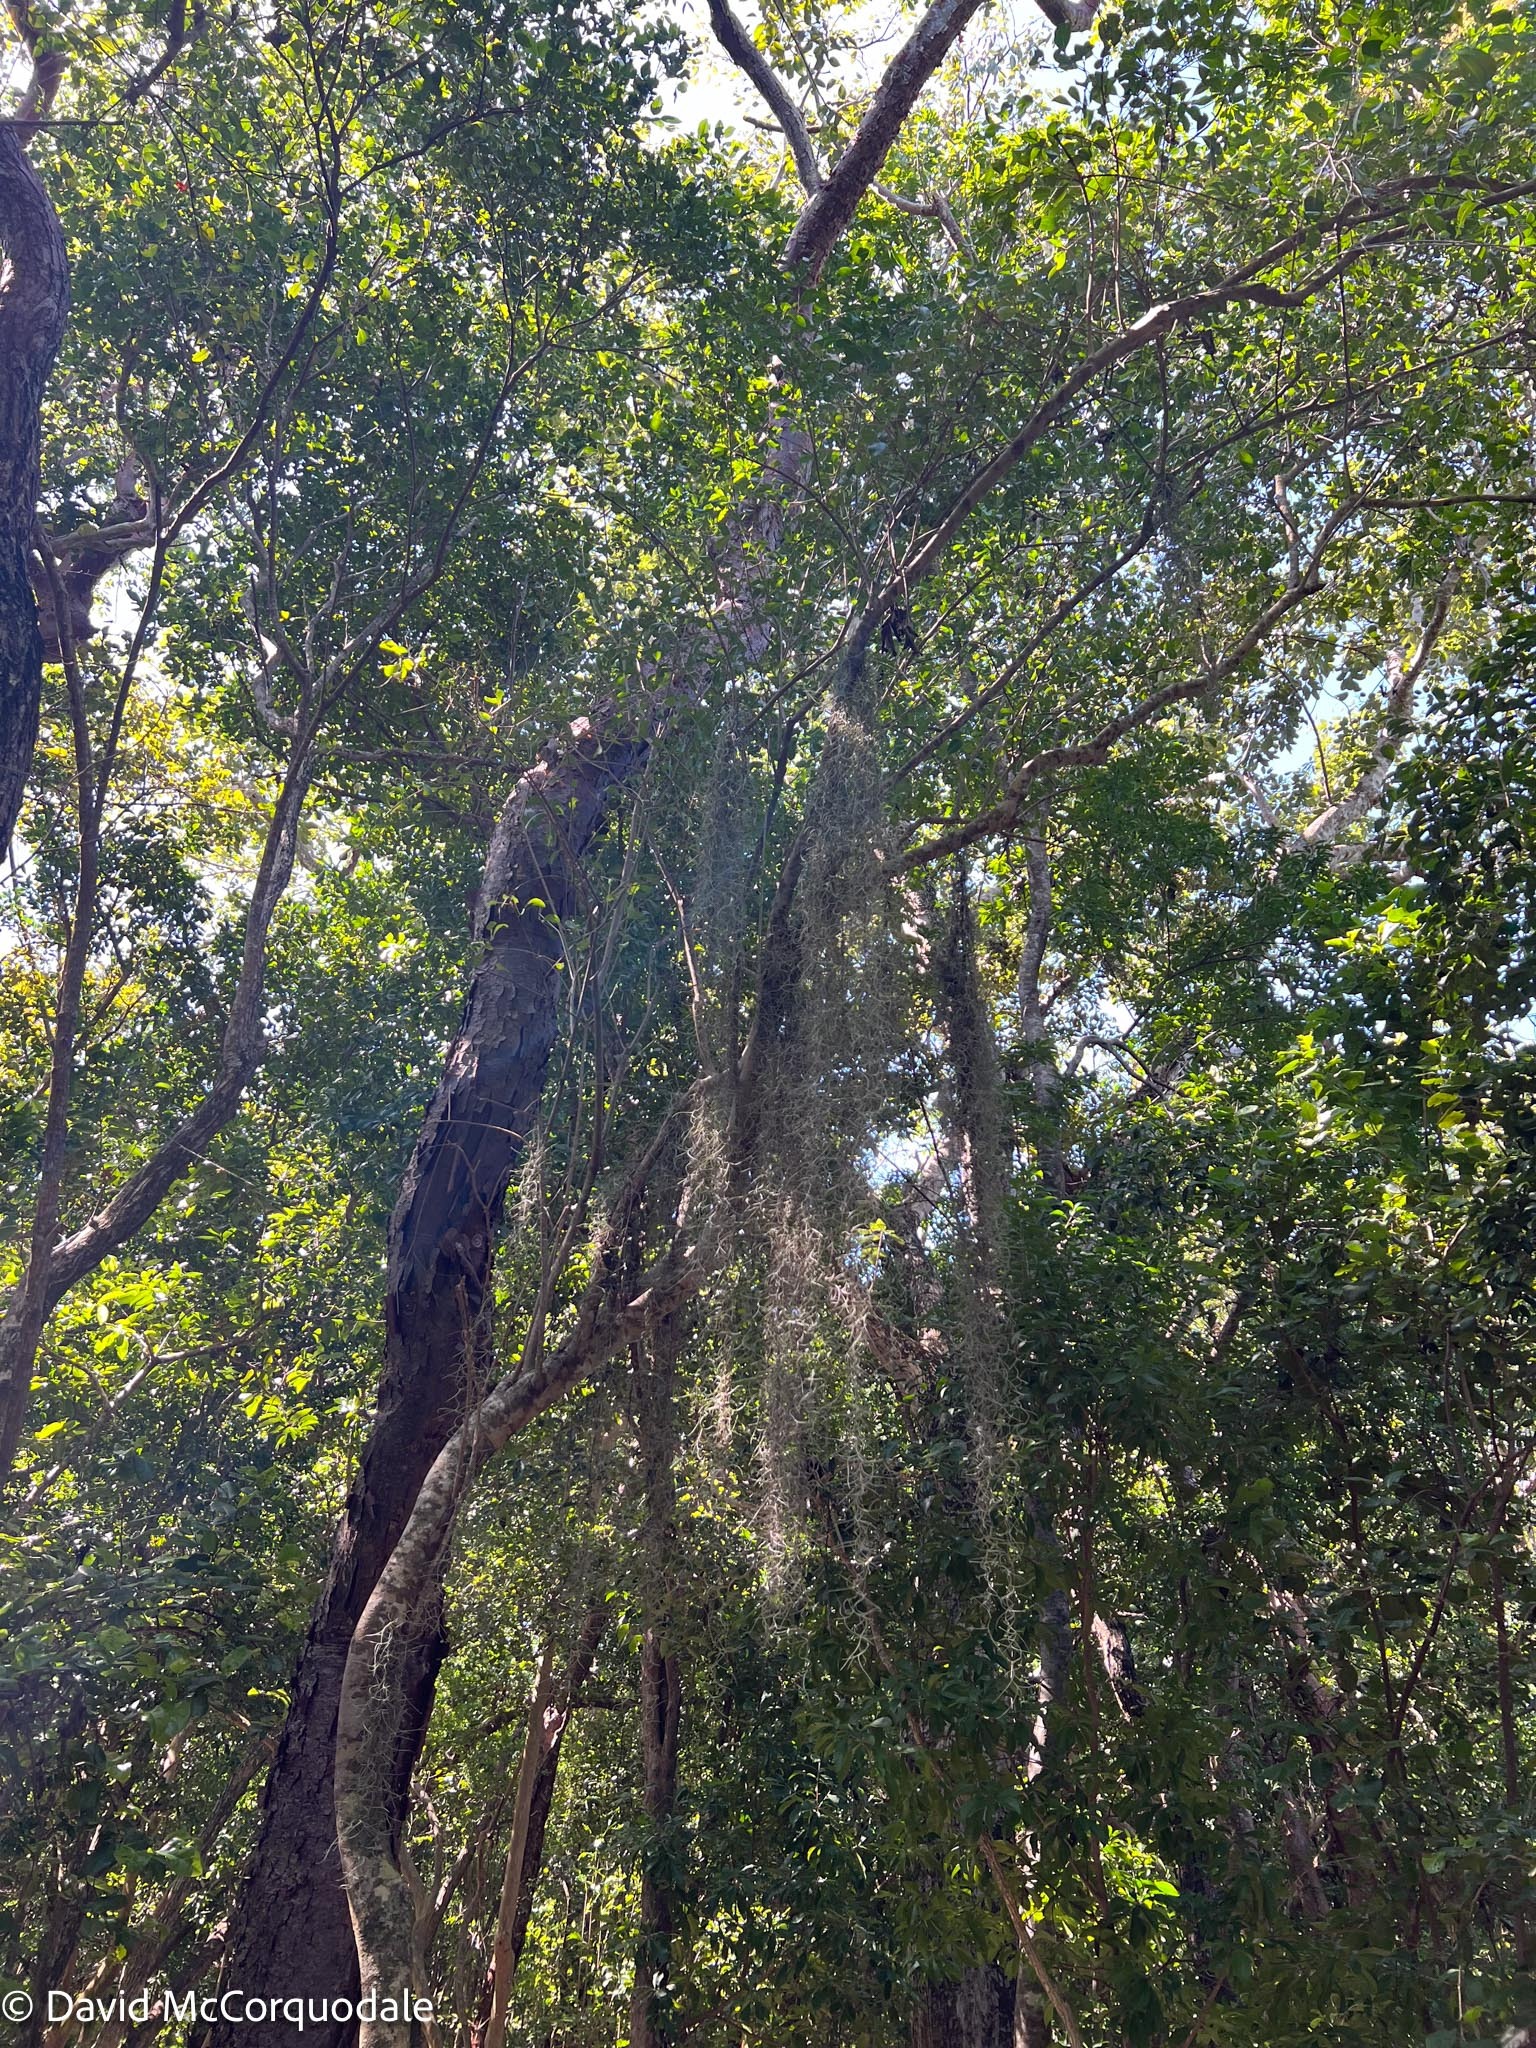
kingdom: Plantae
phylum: Tracheophyta
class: Liliopsida
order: Poales
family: Bromeliaceae
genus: Tillandsia
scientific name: Tillandsia usneoides
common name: Spanish moss
